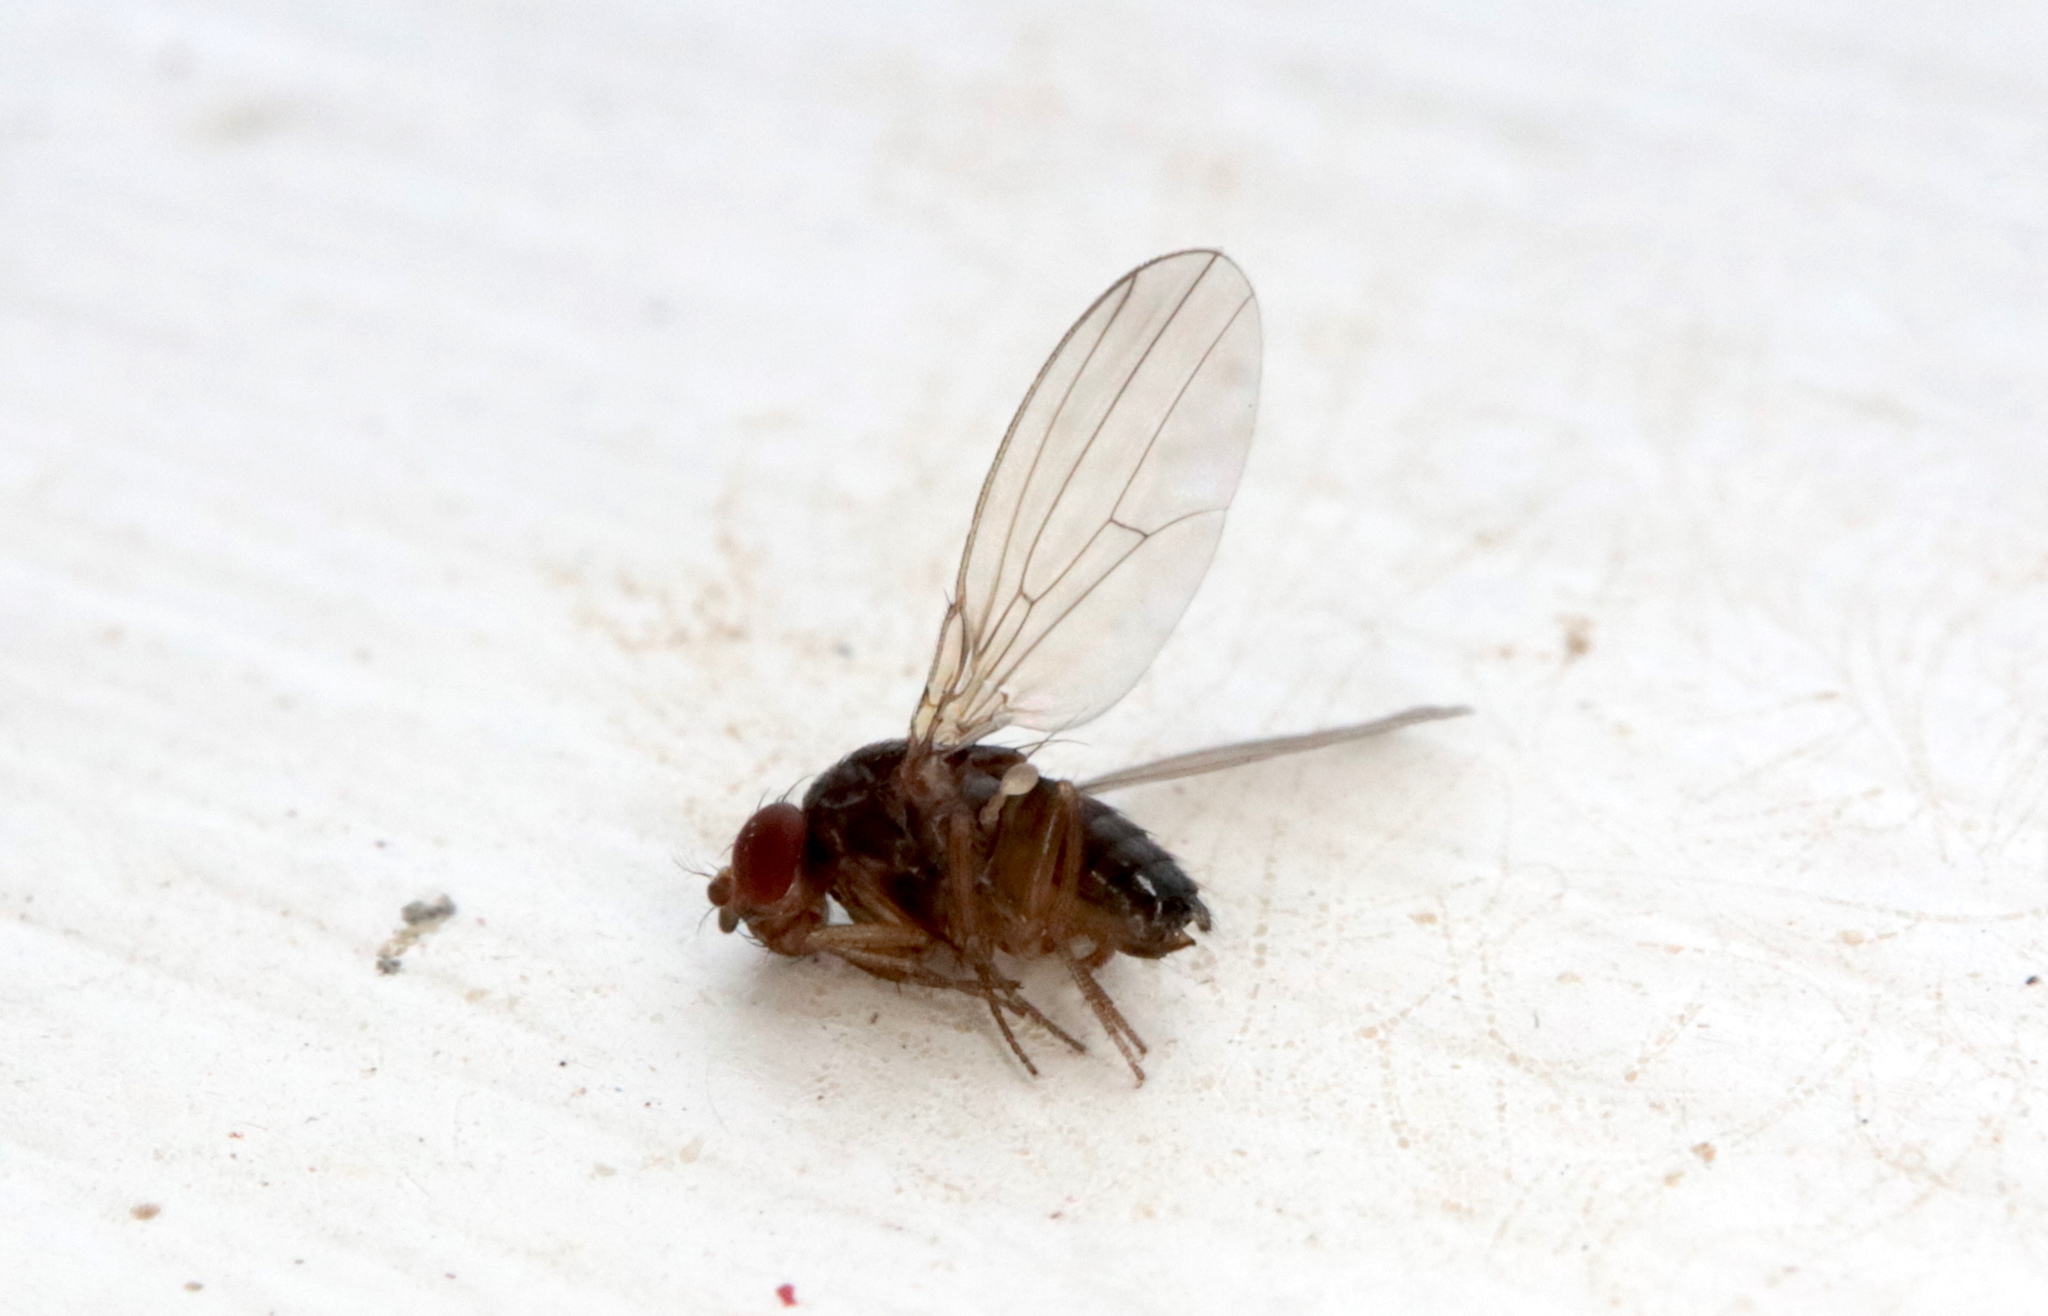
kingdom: Animalia
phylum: Arthropoda
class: Insecta
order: Diptera
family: Drosophilidae
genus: Drosophila
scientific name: Drosophila suzukii
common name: Spotted-wing drosophila
